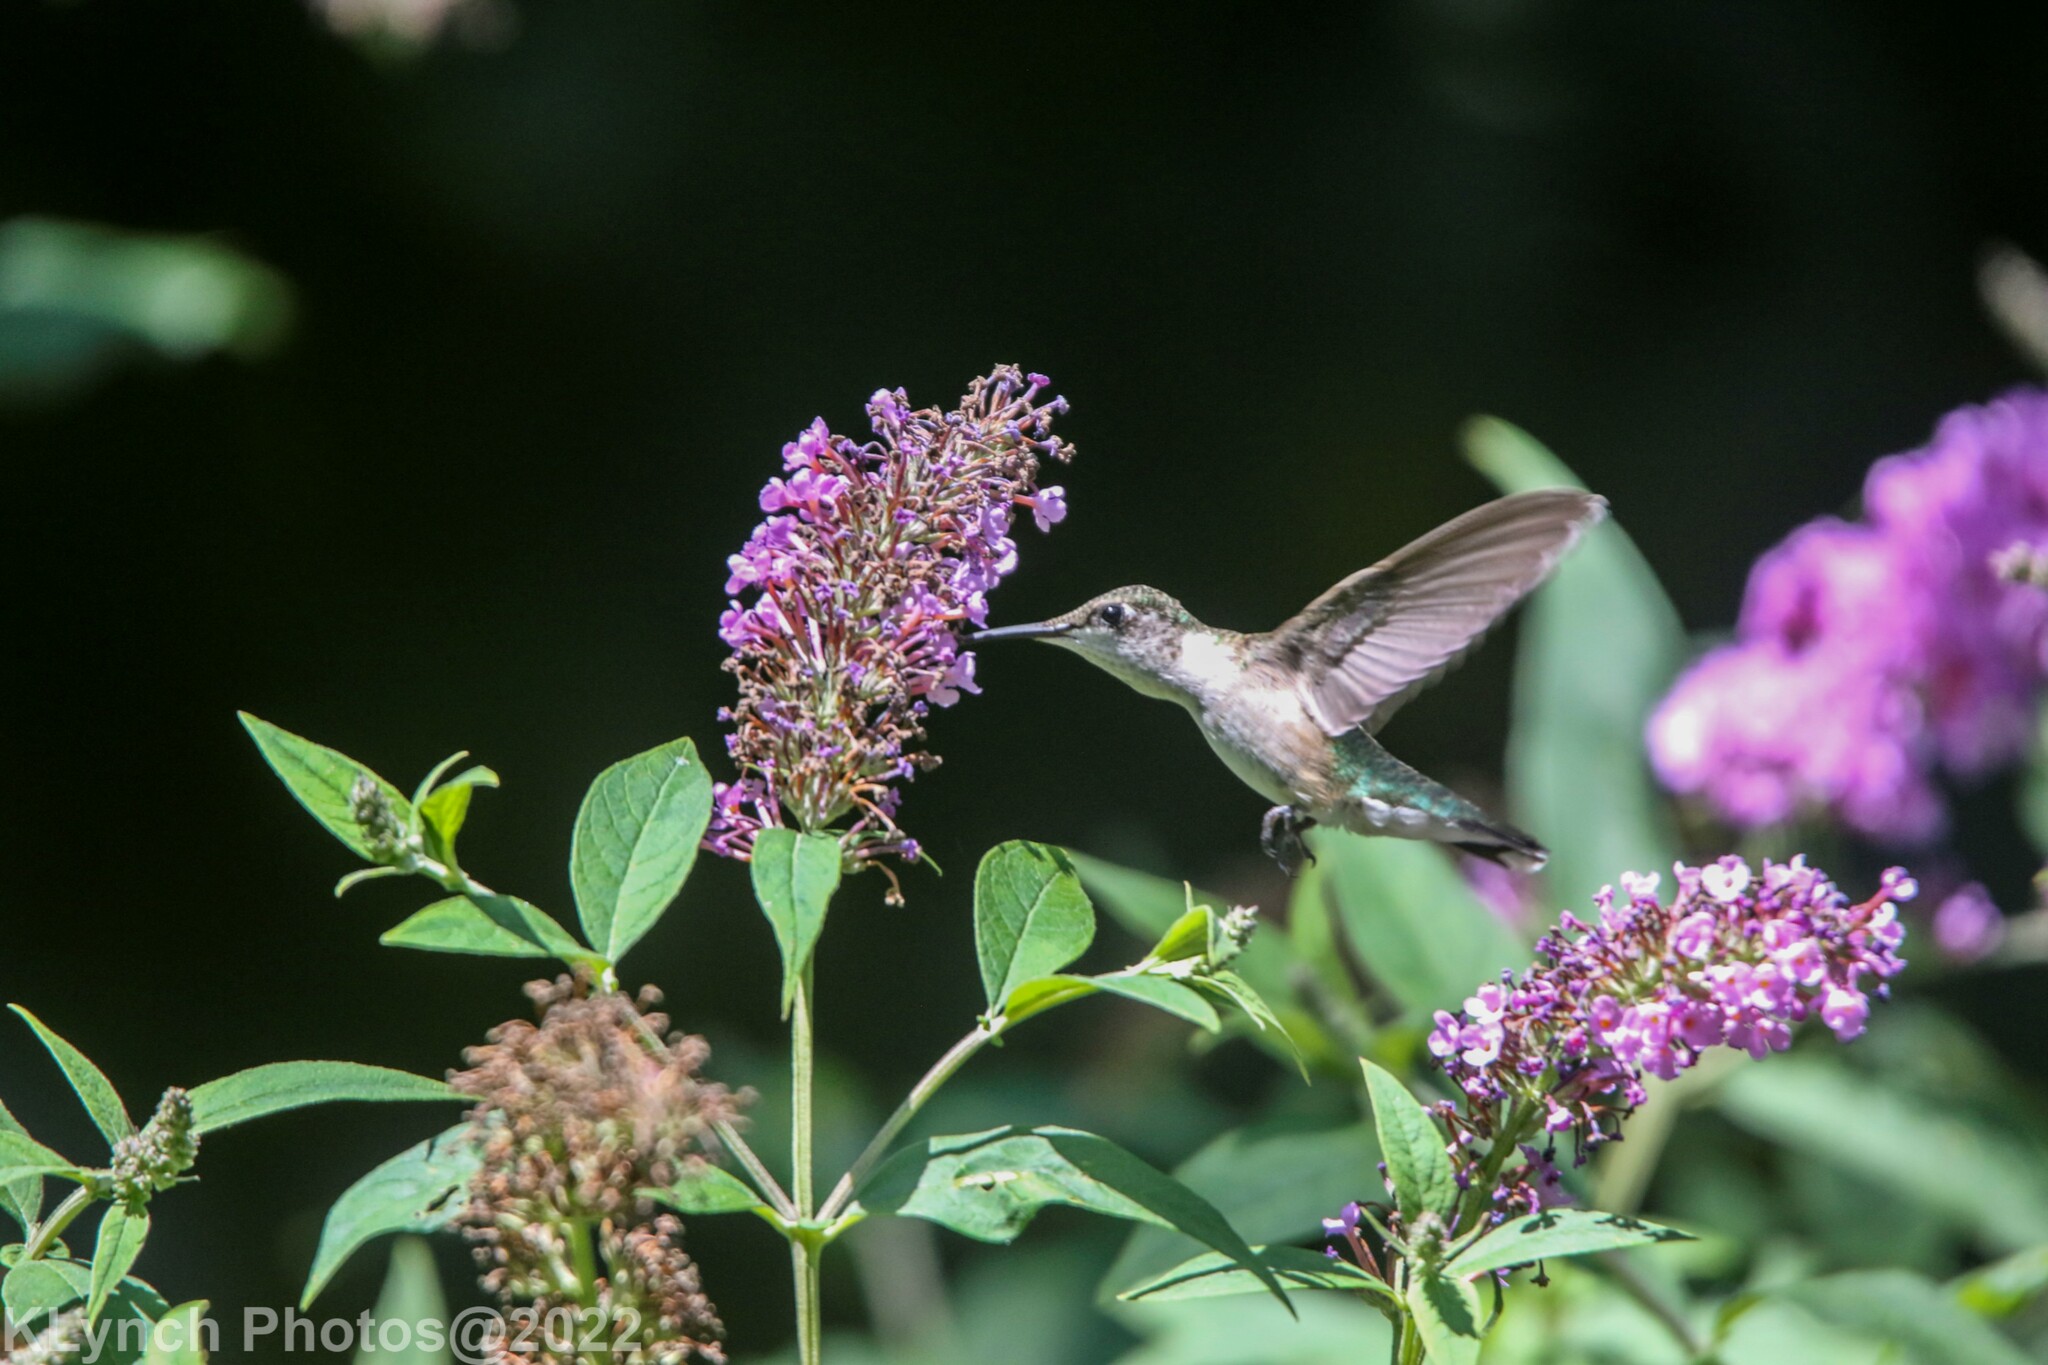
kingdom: Animalia
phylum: Chordata
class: Aves
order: Apodiformes
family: Trochilidae
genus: Archilochus
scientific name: Archilochus colubris
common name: Ruby-throated hummingbird
